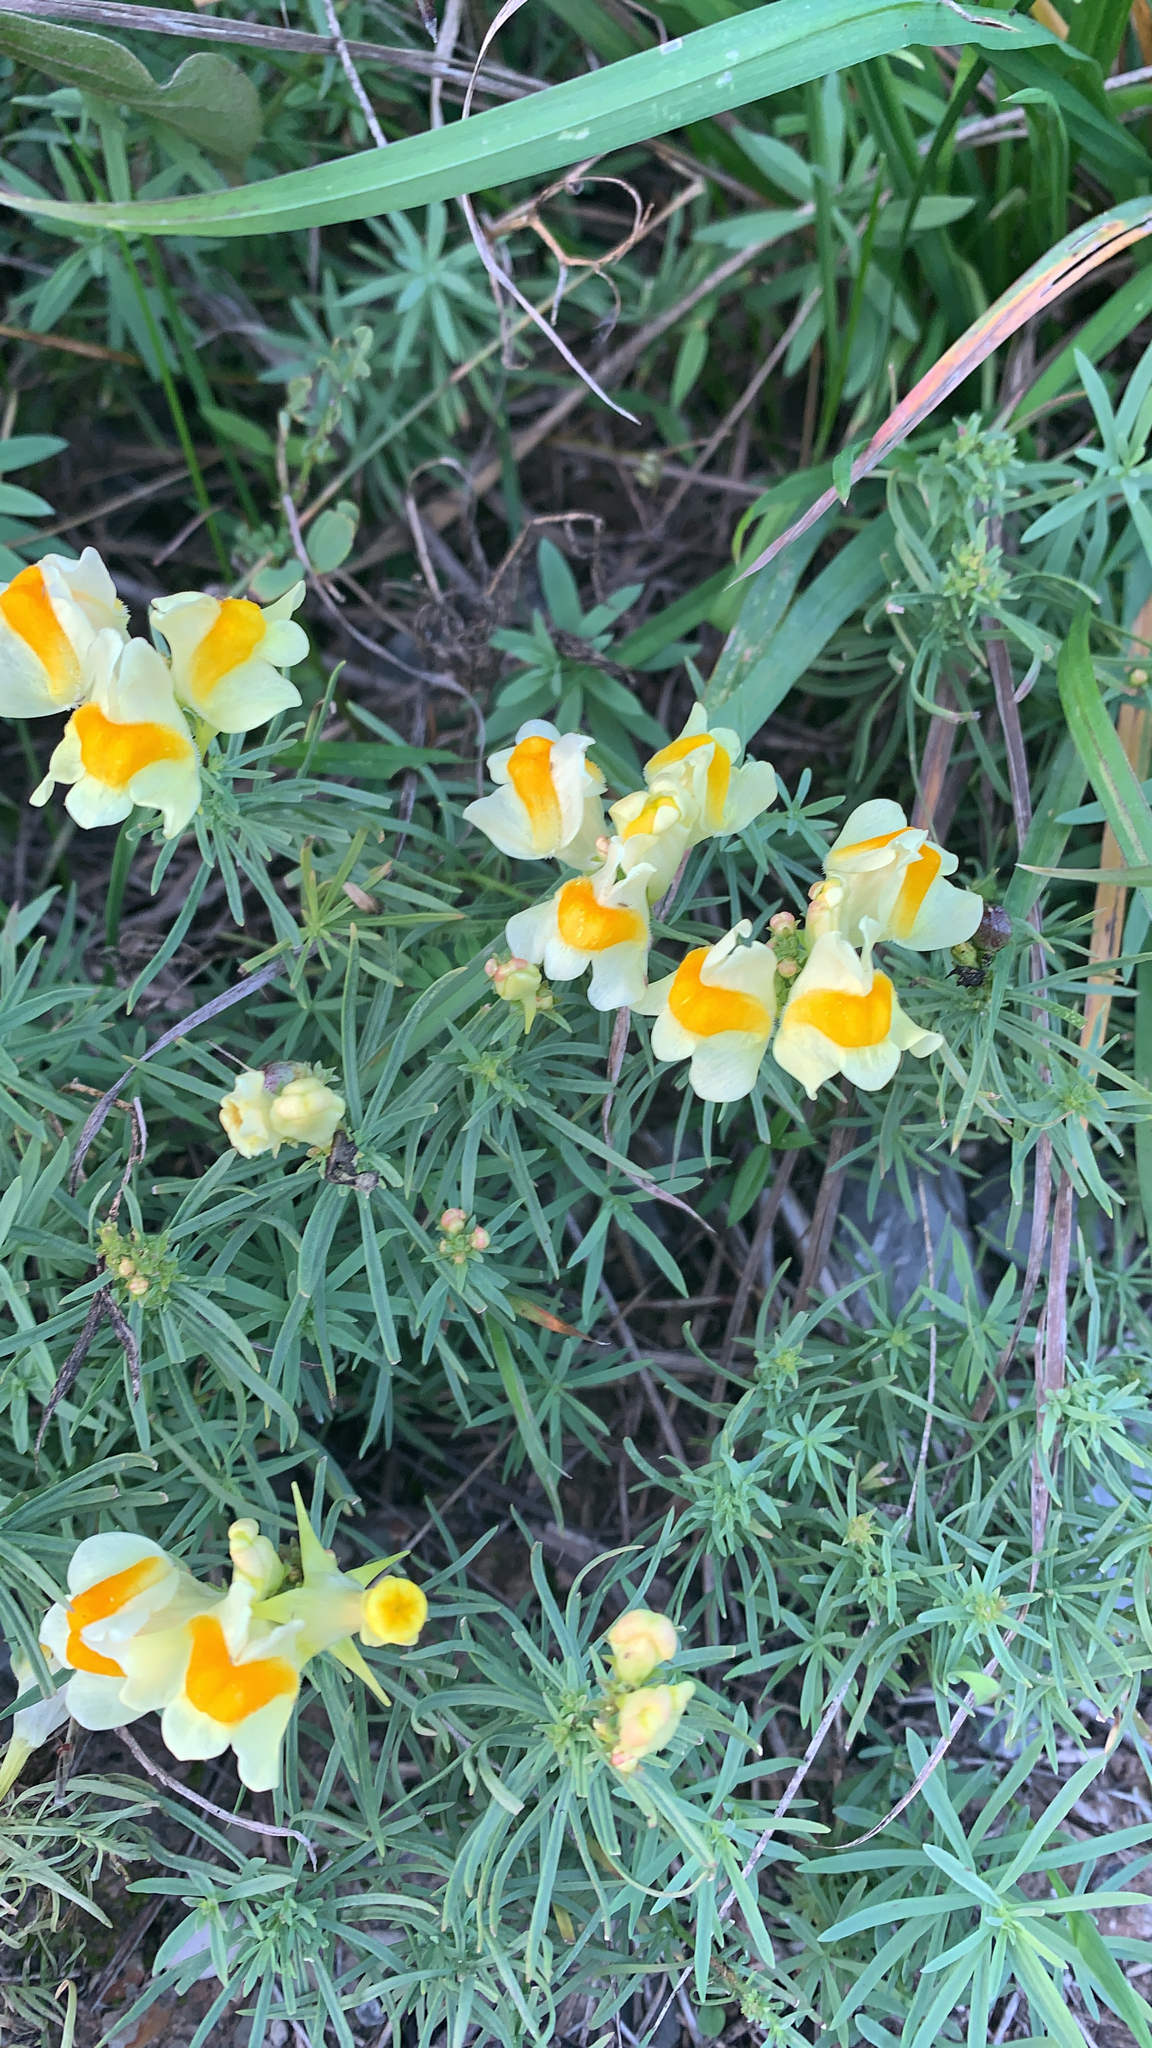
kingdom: Plantae
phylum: Tracheophyta
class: Magnoliopsida
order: Lamiales
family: Plantaginaceae
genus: Linaria
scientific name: Linaria vulgaris
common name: Butter and eggs
